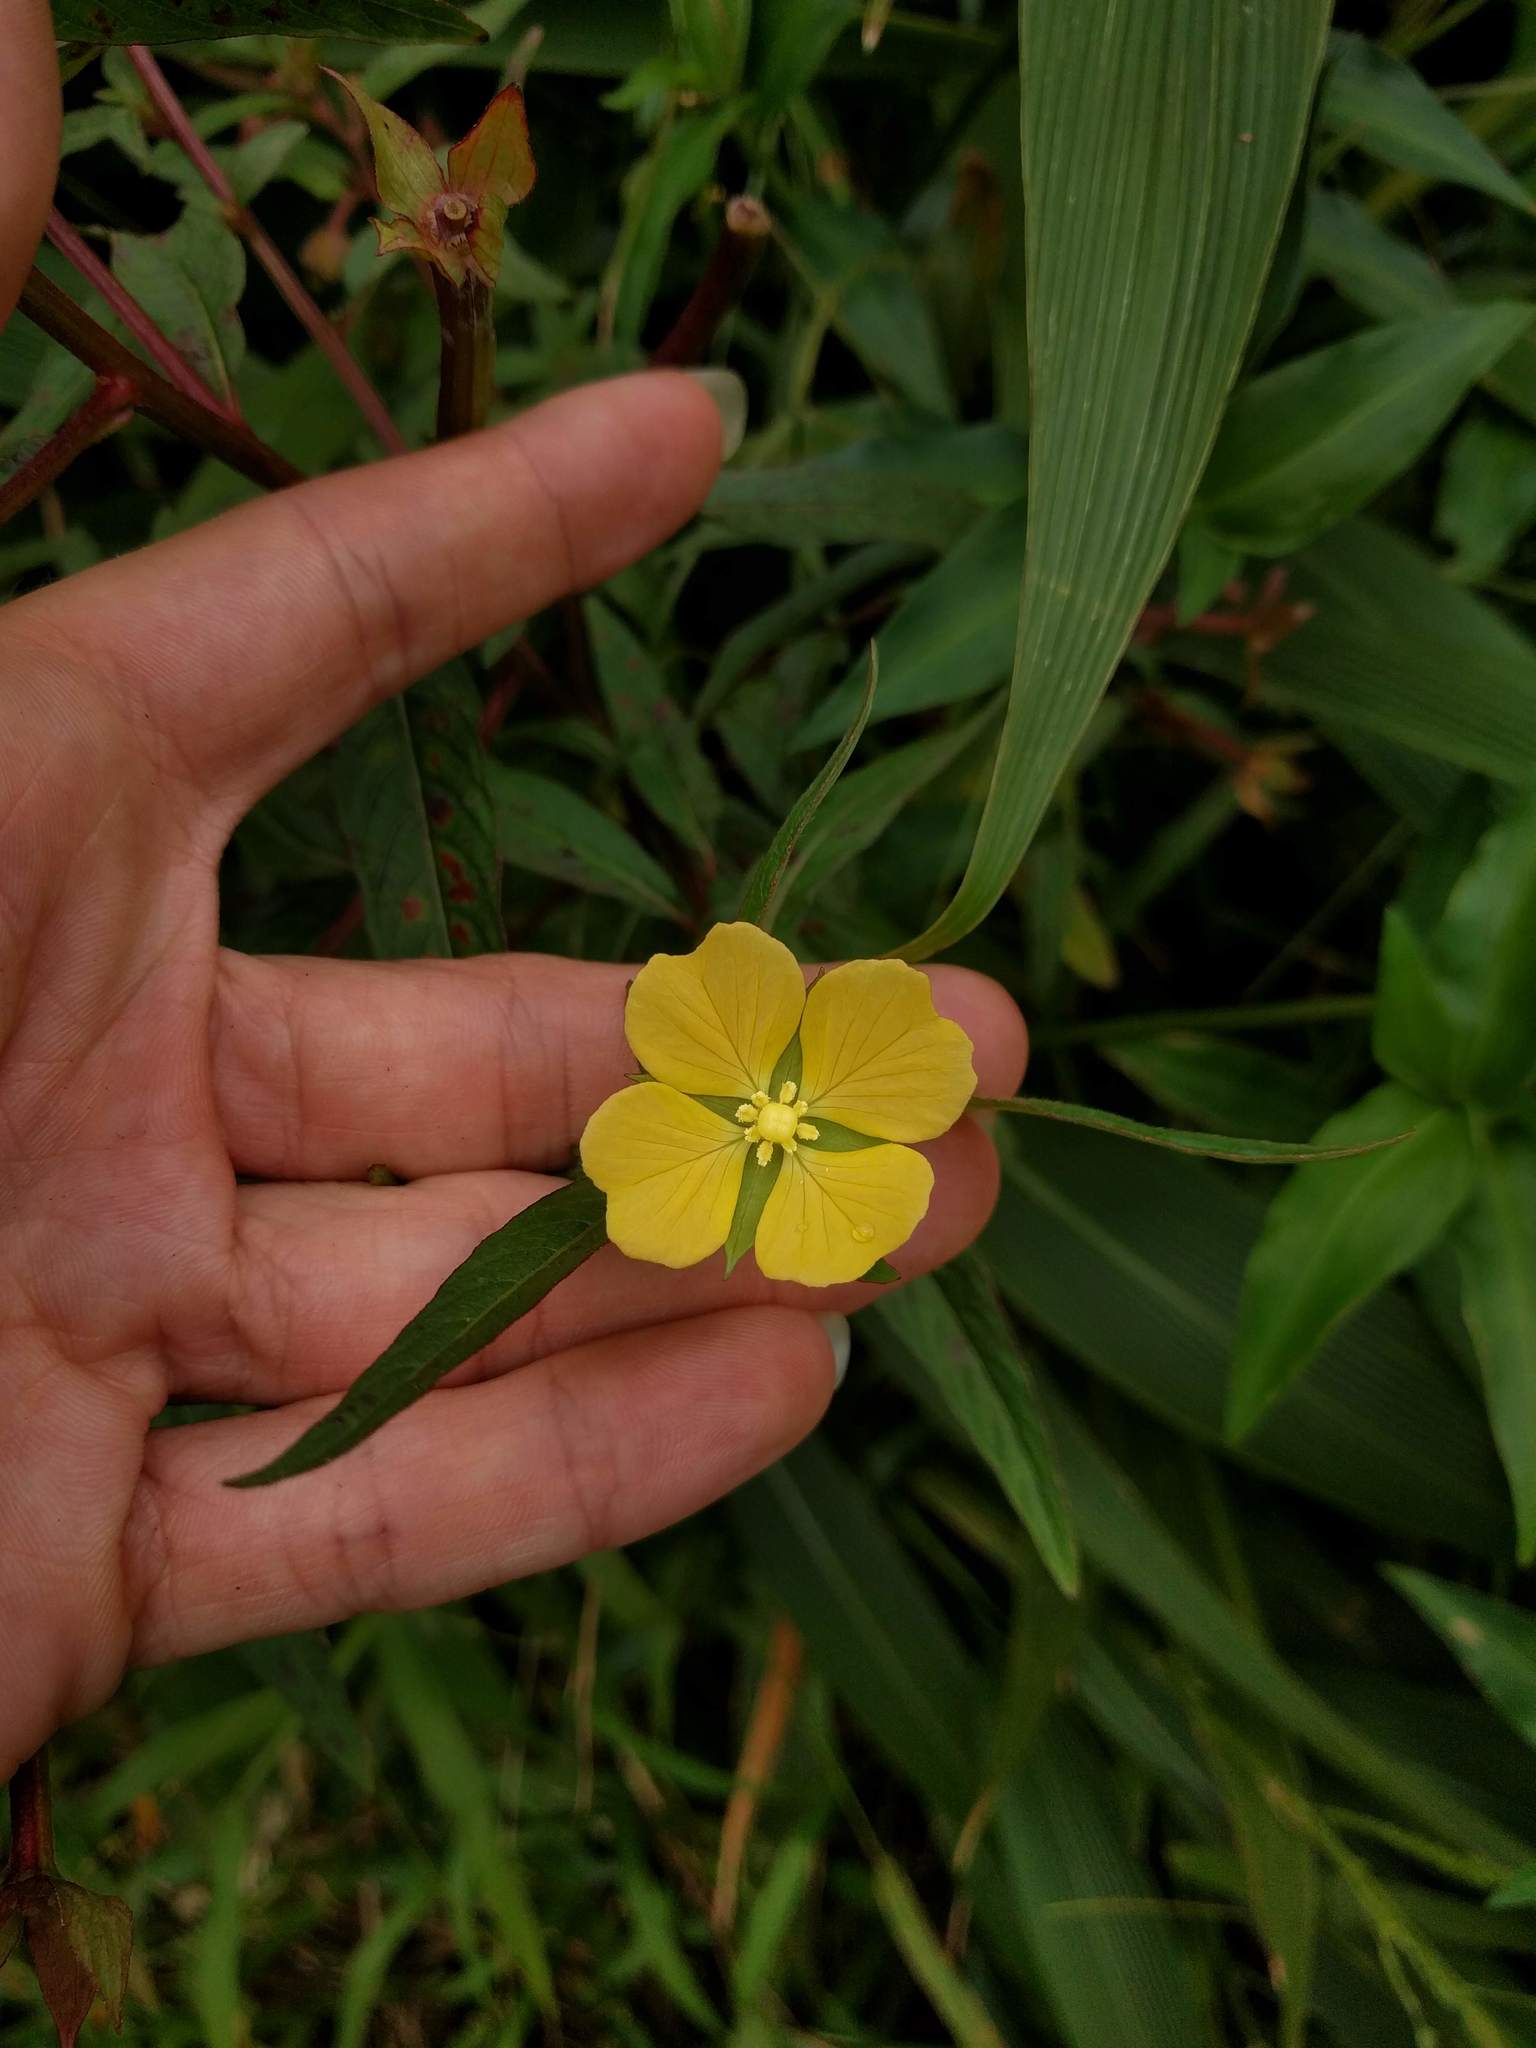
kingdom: Plantae
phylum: Tracheophyta
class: Magnoliopsida
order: Myrtales
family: Onagraceae
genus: Ludwigia
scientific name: Ludwigia octovalvis
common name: Water-primrose
